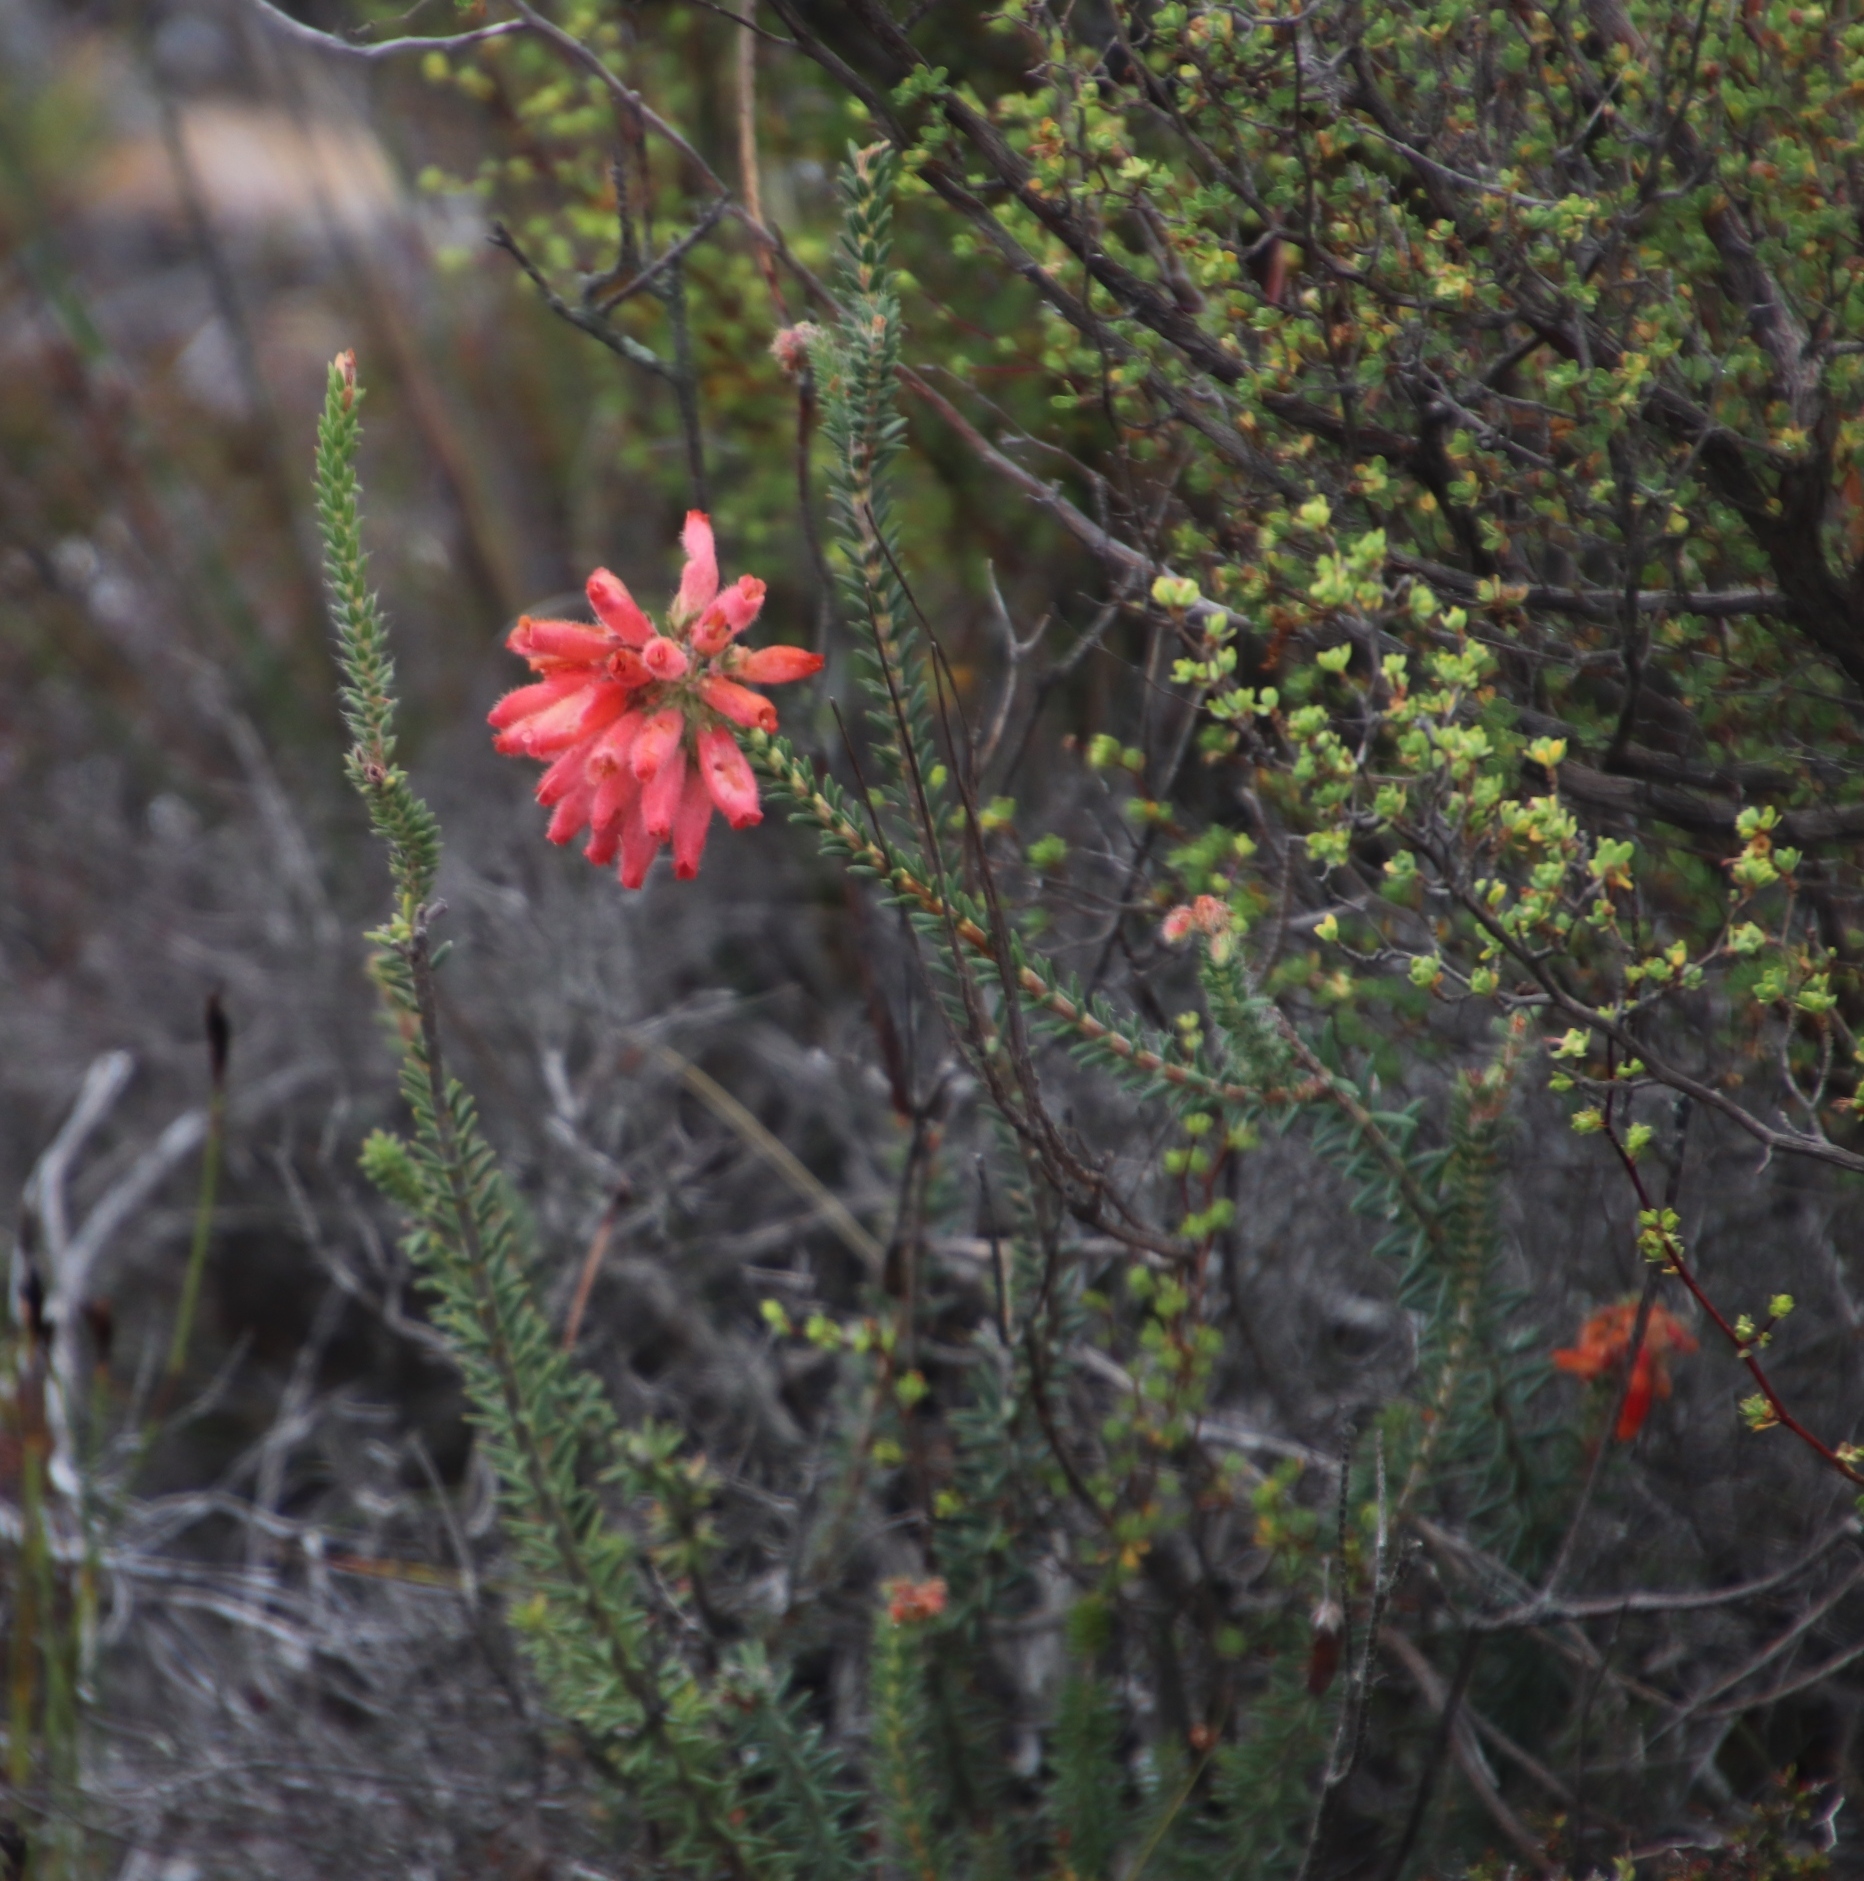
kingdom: Plantae
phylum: Tracheophyta
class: Magnoliopsida
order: Ericales
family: Ericaceae
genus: Erica
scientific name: Erica cerinthoides
